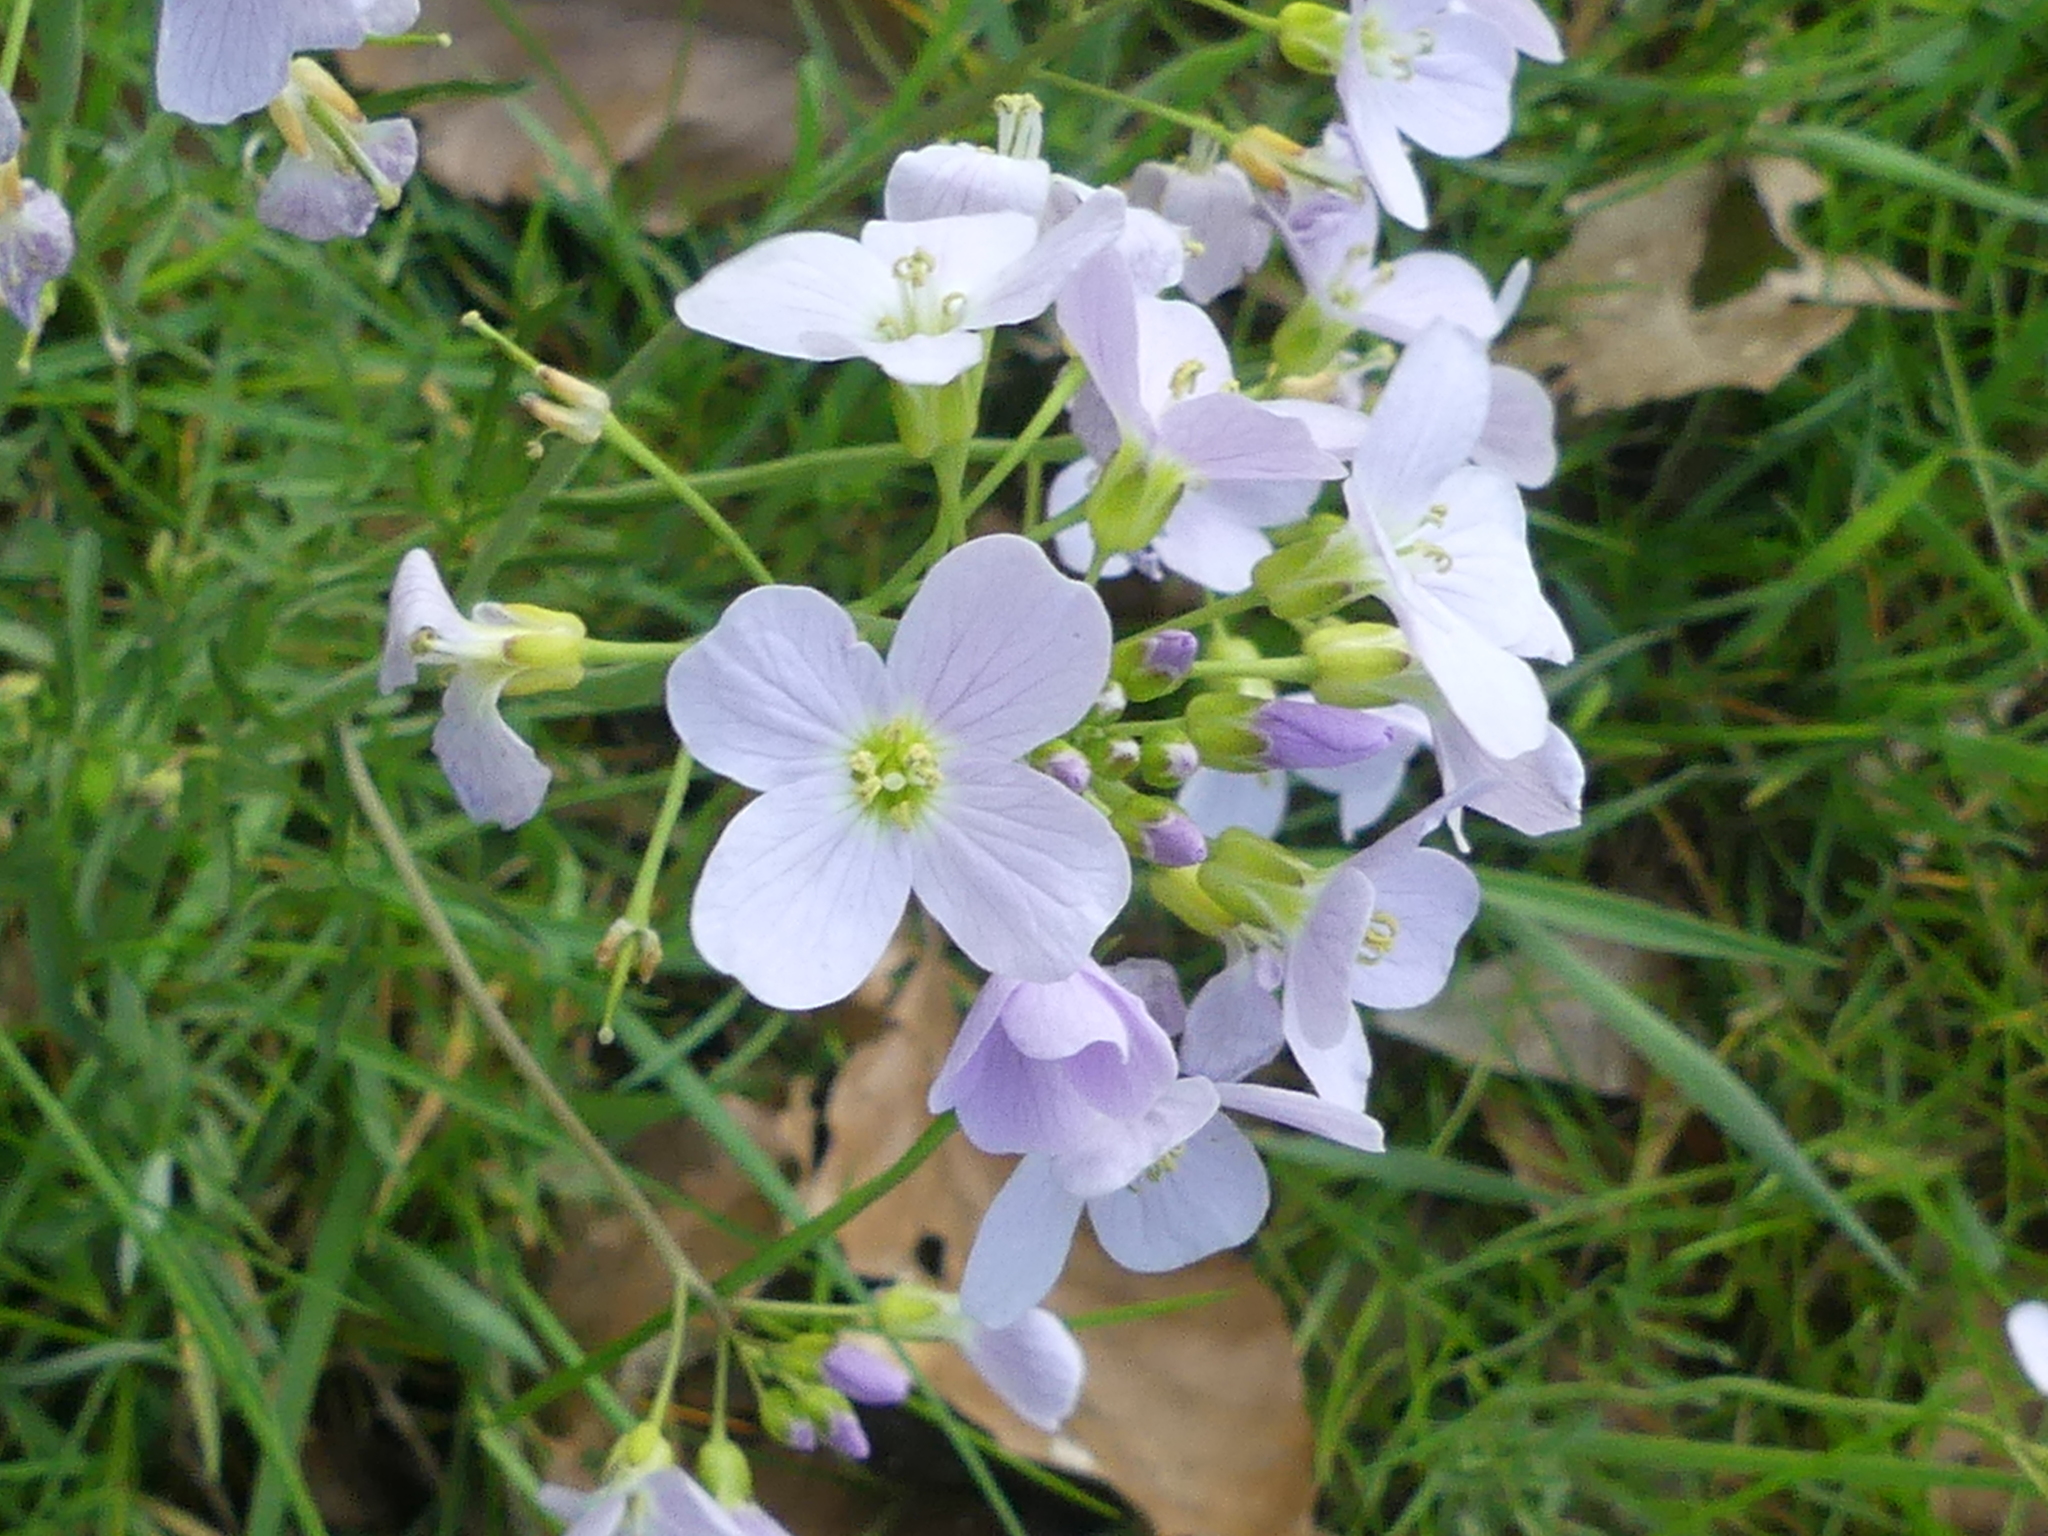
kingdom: Plantae
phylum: Tracheophyta
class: Magnoliopsida
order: Brassicales
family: Brassicaceae
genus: Cardamine
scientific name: Cardamine pratensis
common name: Cuckoo flower
